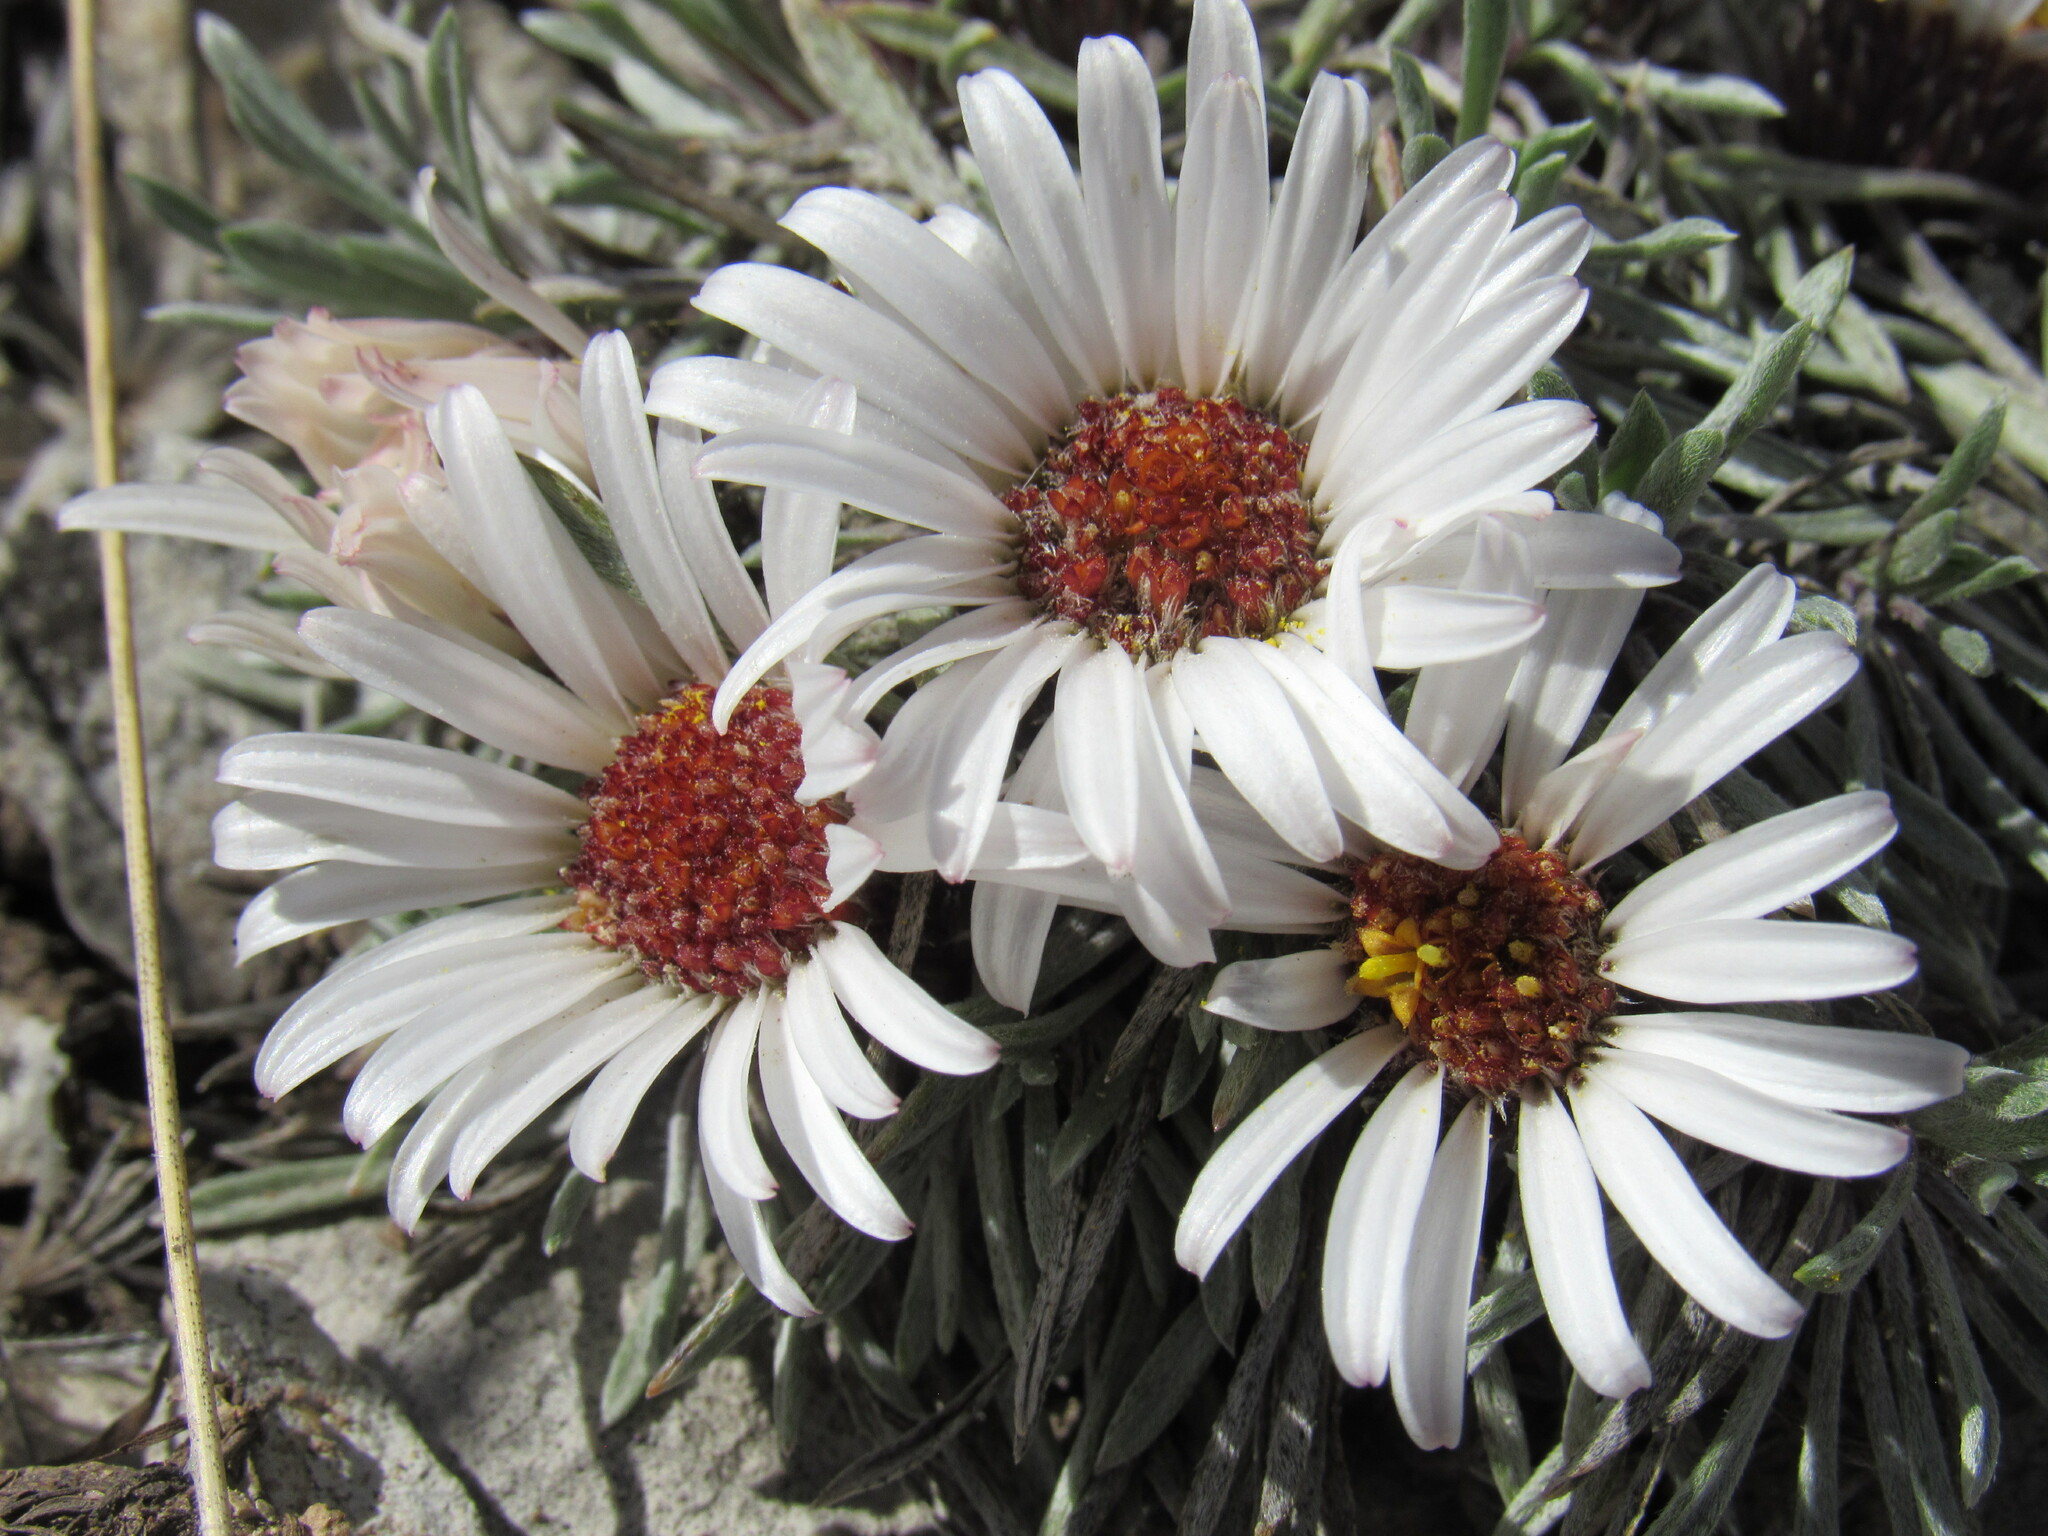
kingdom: Plantae
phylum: Tracheophyta
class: Magnoliopsida
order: Asterales
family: Asteraceae
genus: Townsendia
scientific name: Townsendia hookeri
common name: Hooker's townsend daisy
